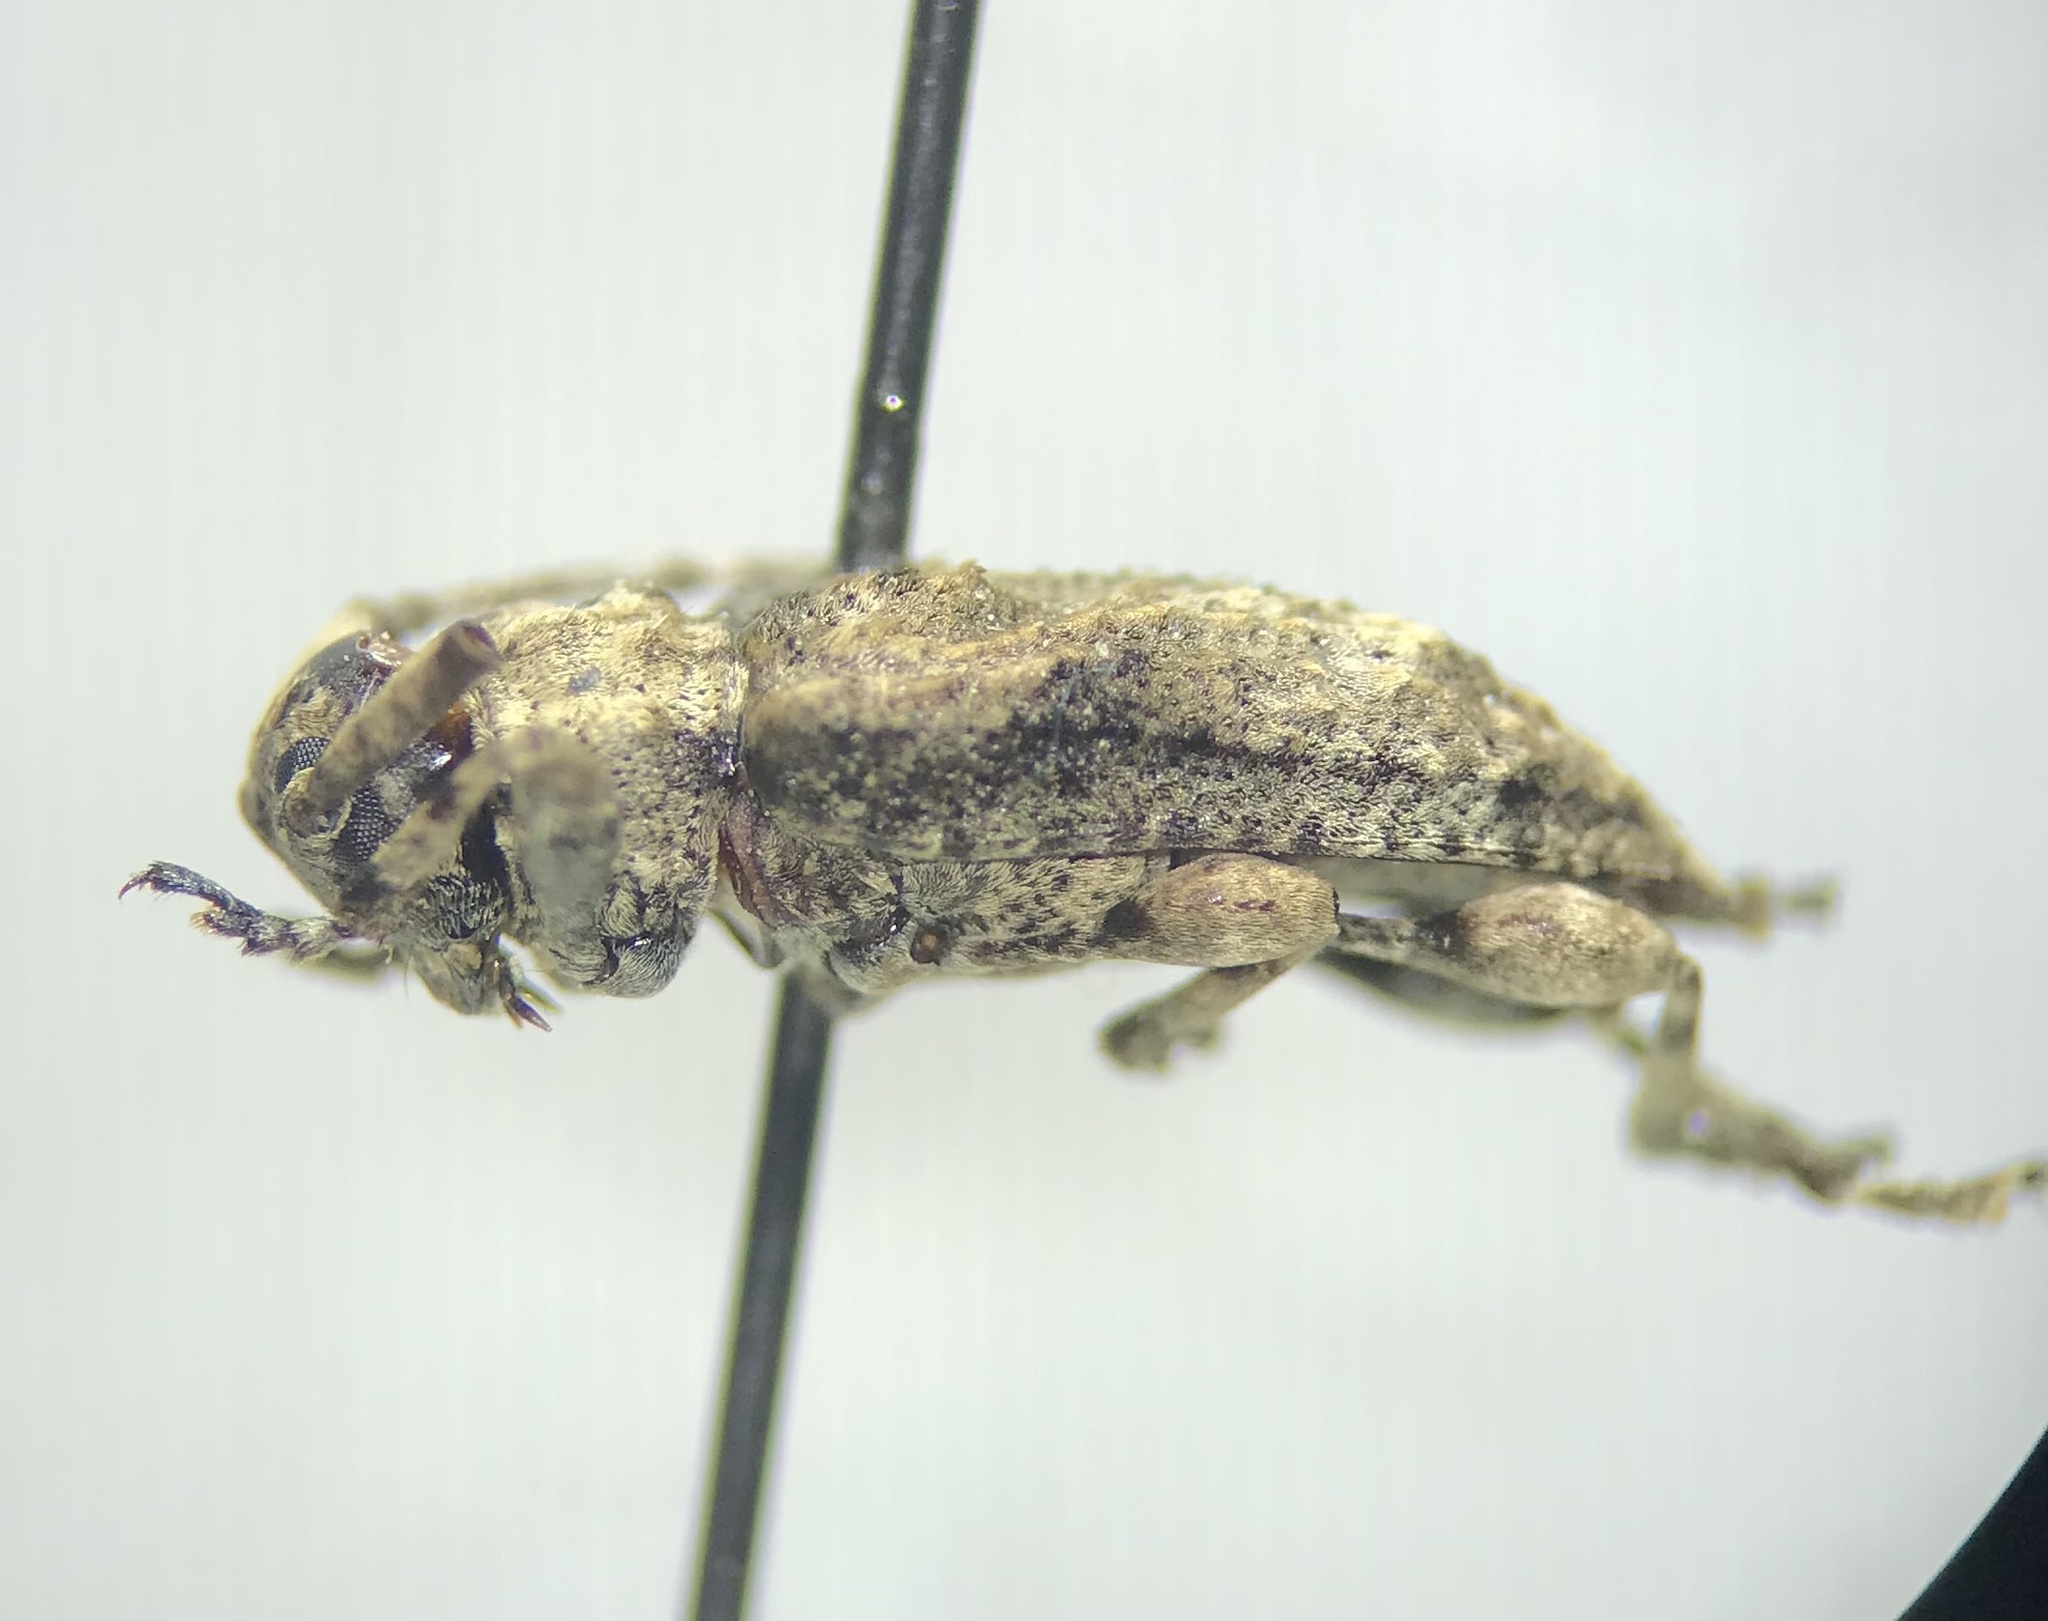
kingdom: Animalia
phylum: Arthropoda
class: Insecta
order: Coleoptera
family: Cerambycidae
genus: Leptostylus
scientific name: Leptostylus transversus
